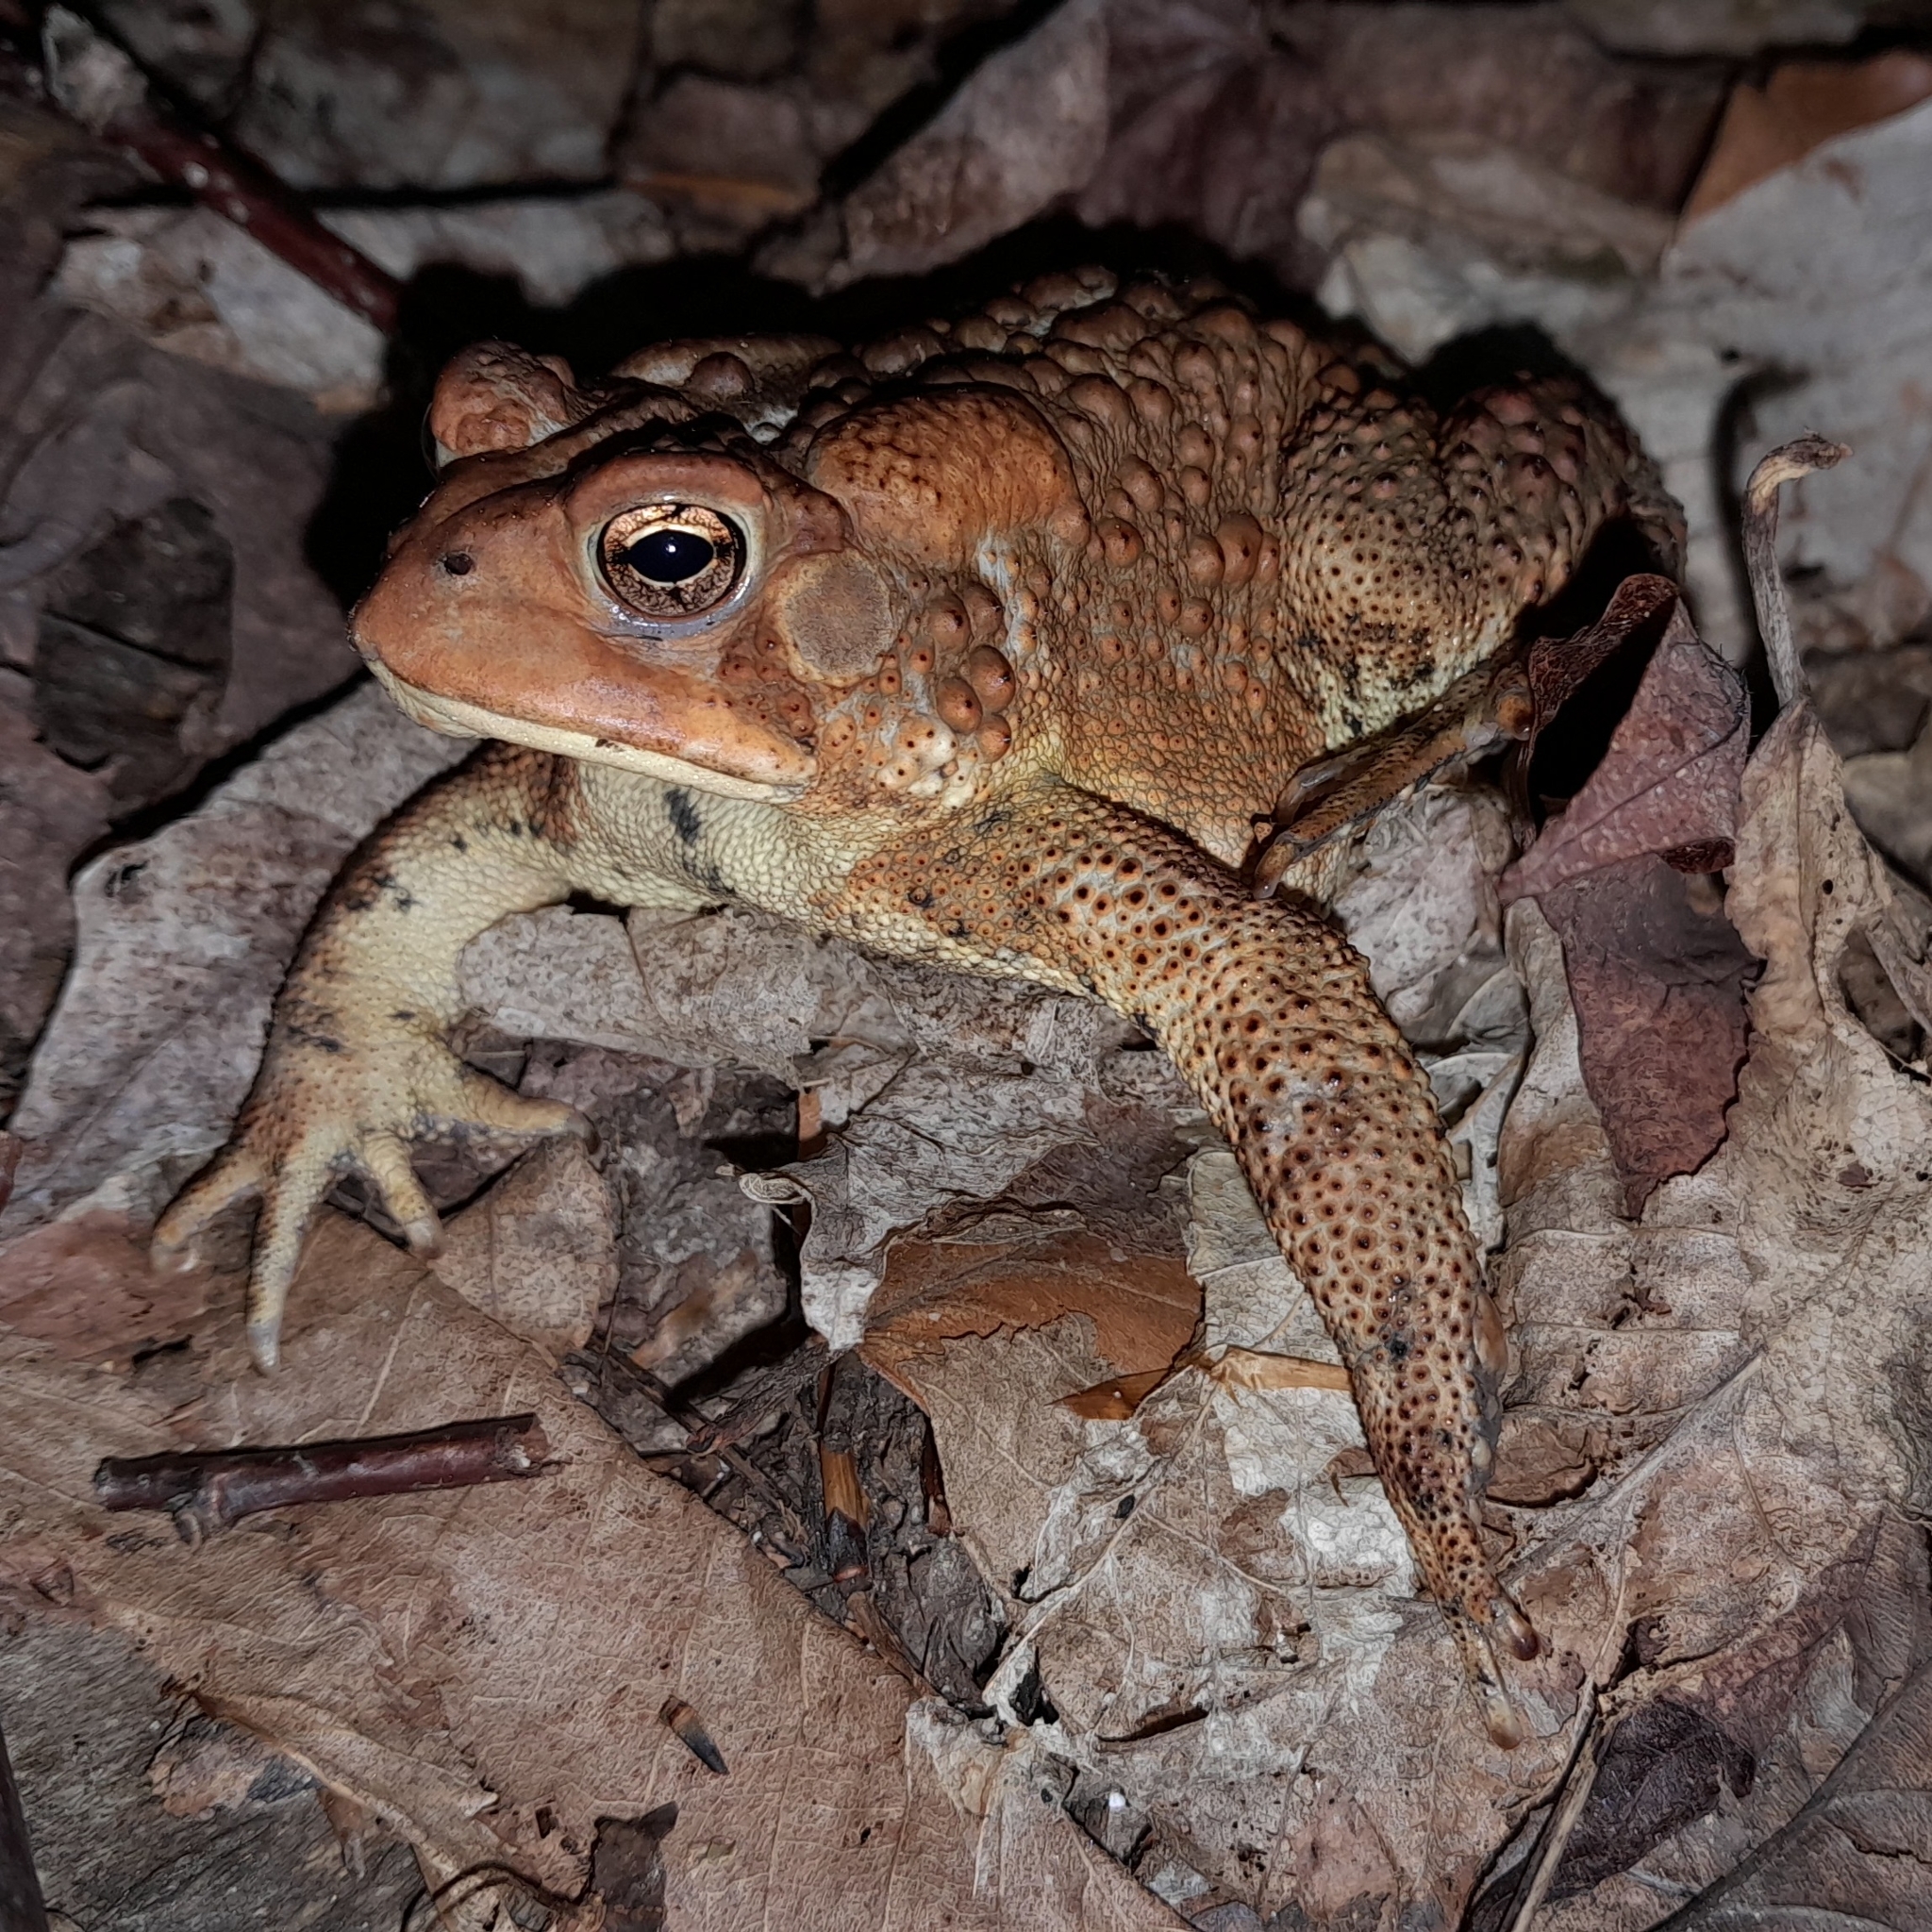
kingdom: Animalia
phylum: Chordata
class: Amphibia
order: Anura
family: Bufonidae
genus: Anaxyrus
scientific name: Anaxyrus americanus
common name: American toad
